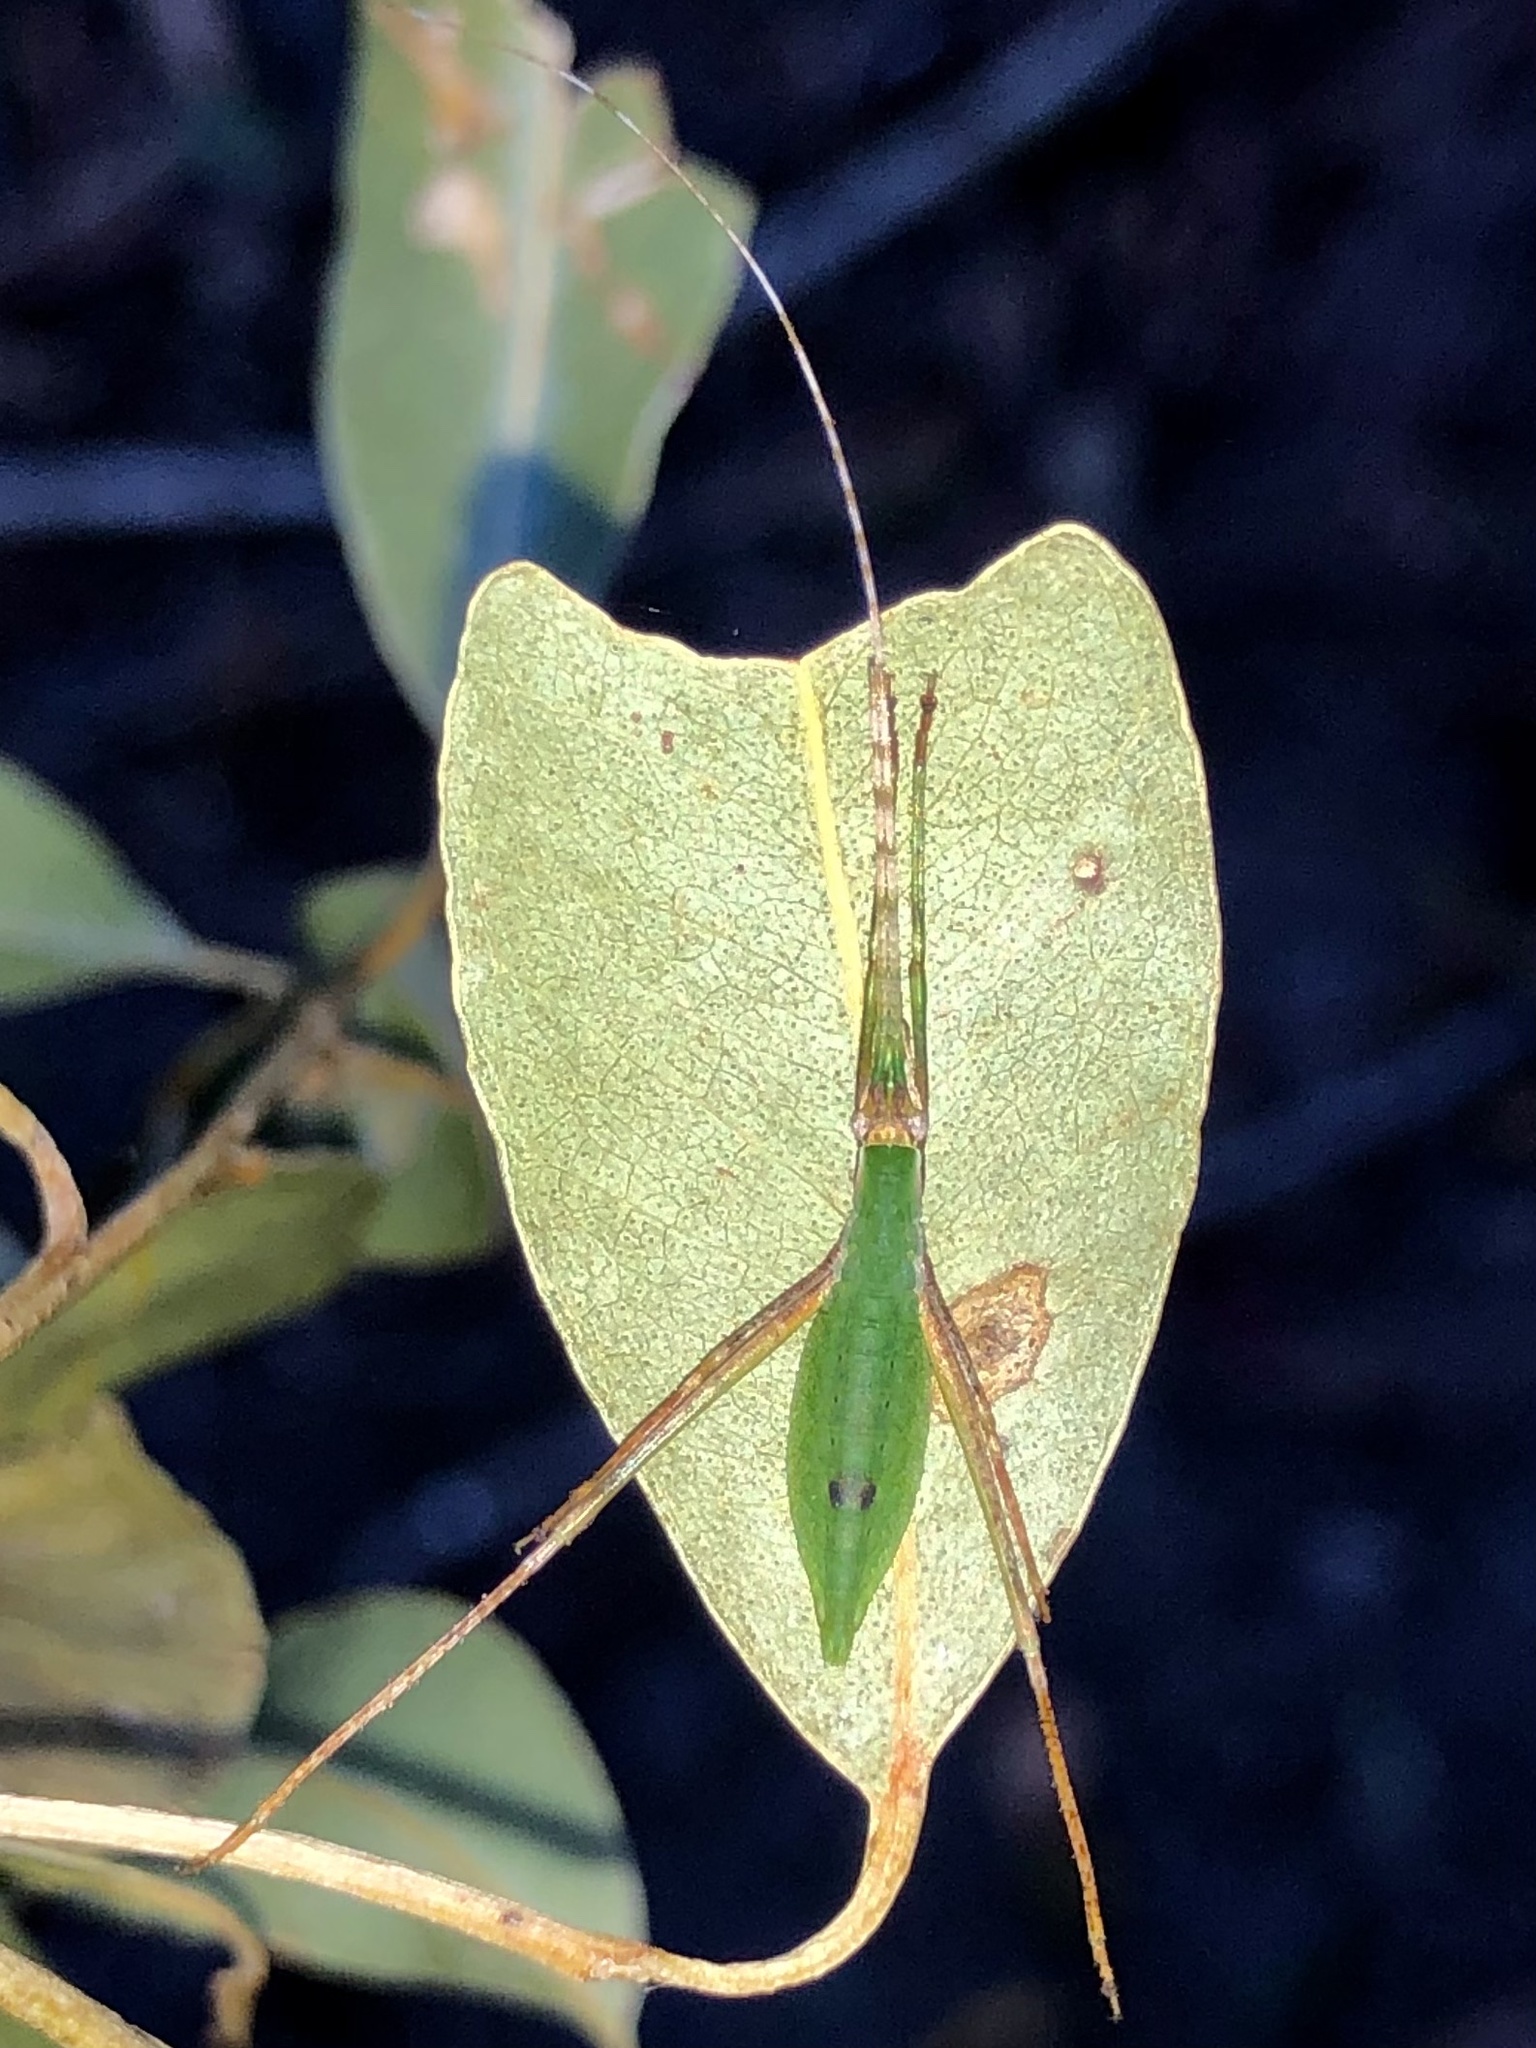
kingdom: Animalia
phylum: Arthropoda
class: Insecta
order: Orthoptera
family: Tettigoniidae
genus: Anthophiloptera
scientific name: Anthophiloptera dryas
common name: Balsam beast
